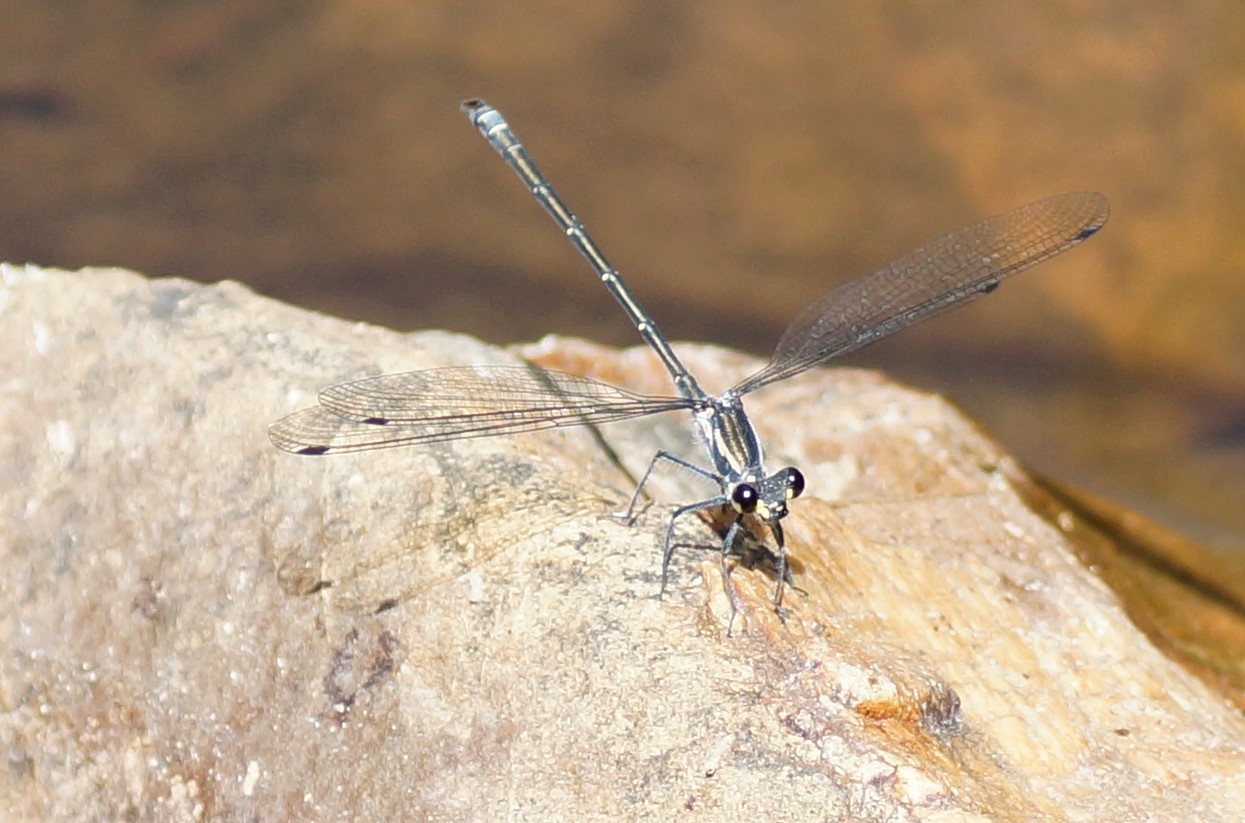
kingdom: Animalia
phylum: Arthropoda
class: Insecta
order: Odonata
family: Argiolestidae
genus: Austroargiolestes
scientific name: Austroargiolestes icteromelas
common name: Common flatwing
